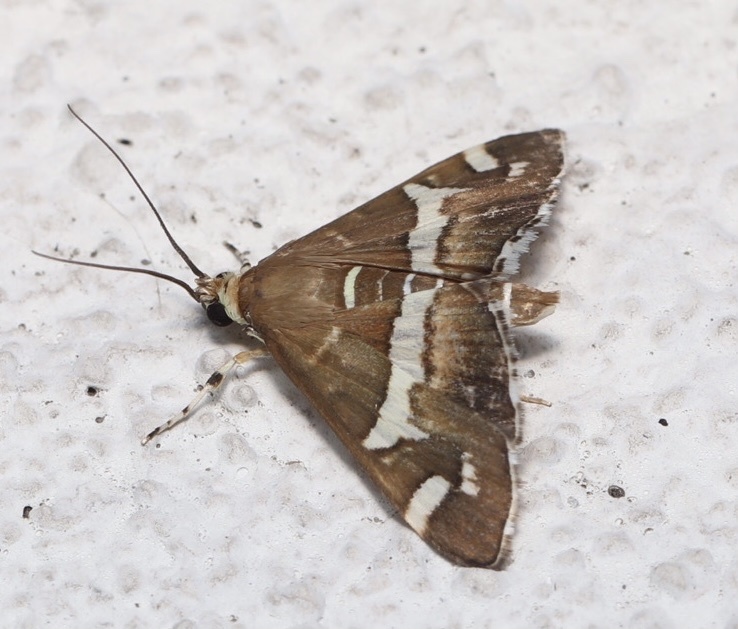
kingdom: Animalia
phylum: Arthropoda
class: Insecta
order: Lepidoptera
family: Crambidae
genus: Spoladea
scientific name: Spoladea recurvalis
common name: Beet webworm moth
